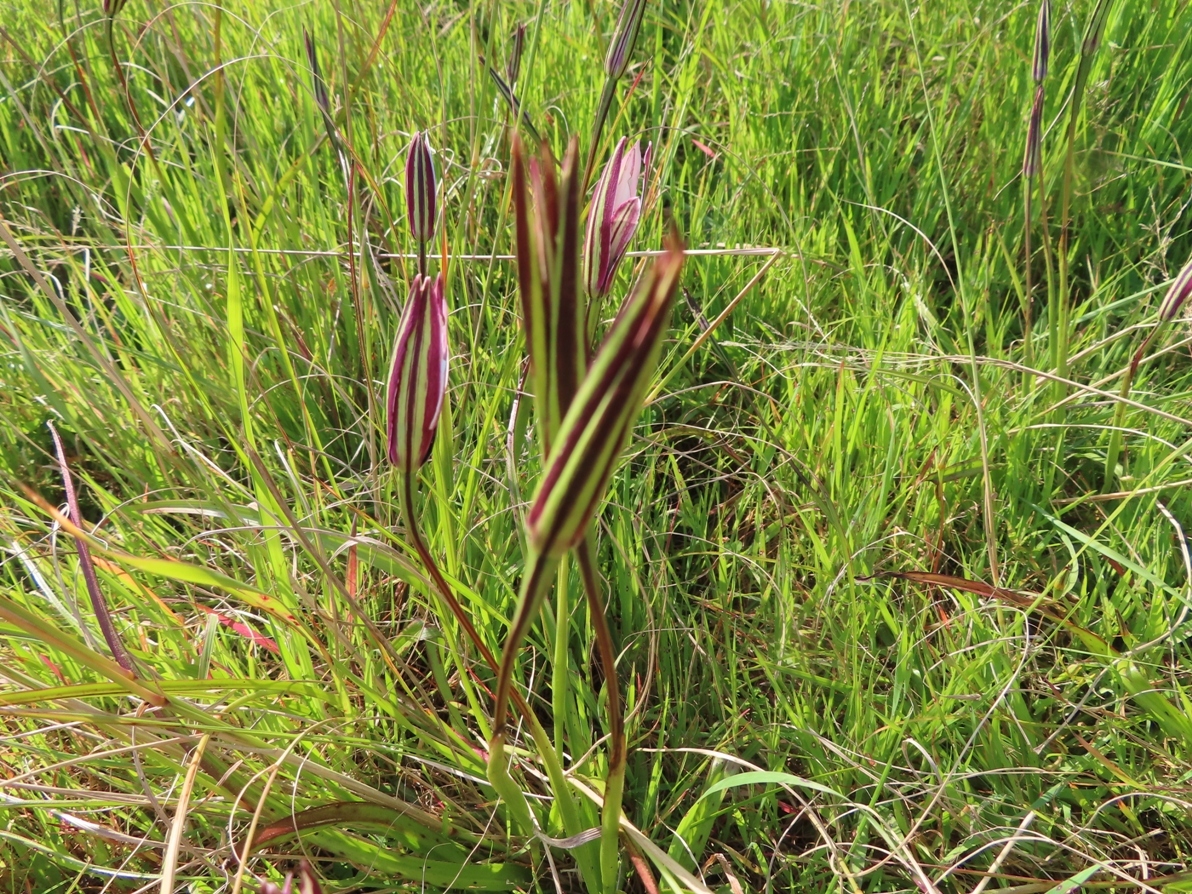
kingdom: Plantae
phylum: Tracheophyta
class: Liliopsida
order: Asparagales
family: Hypoxidaceae
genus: Pauridia
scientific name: Pauridia capensis
